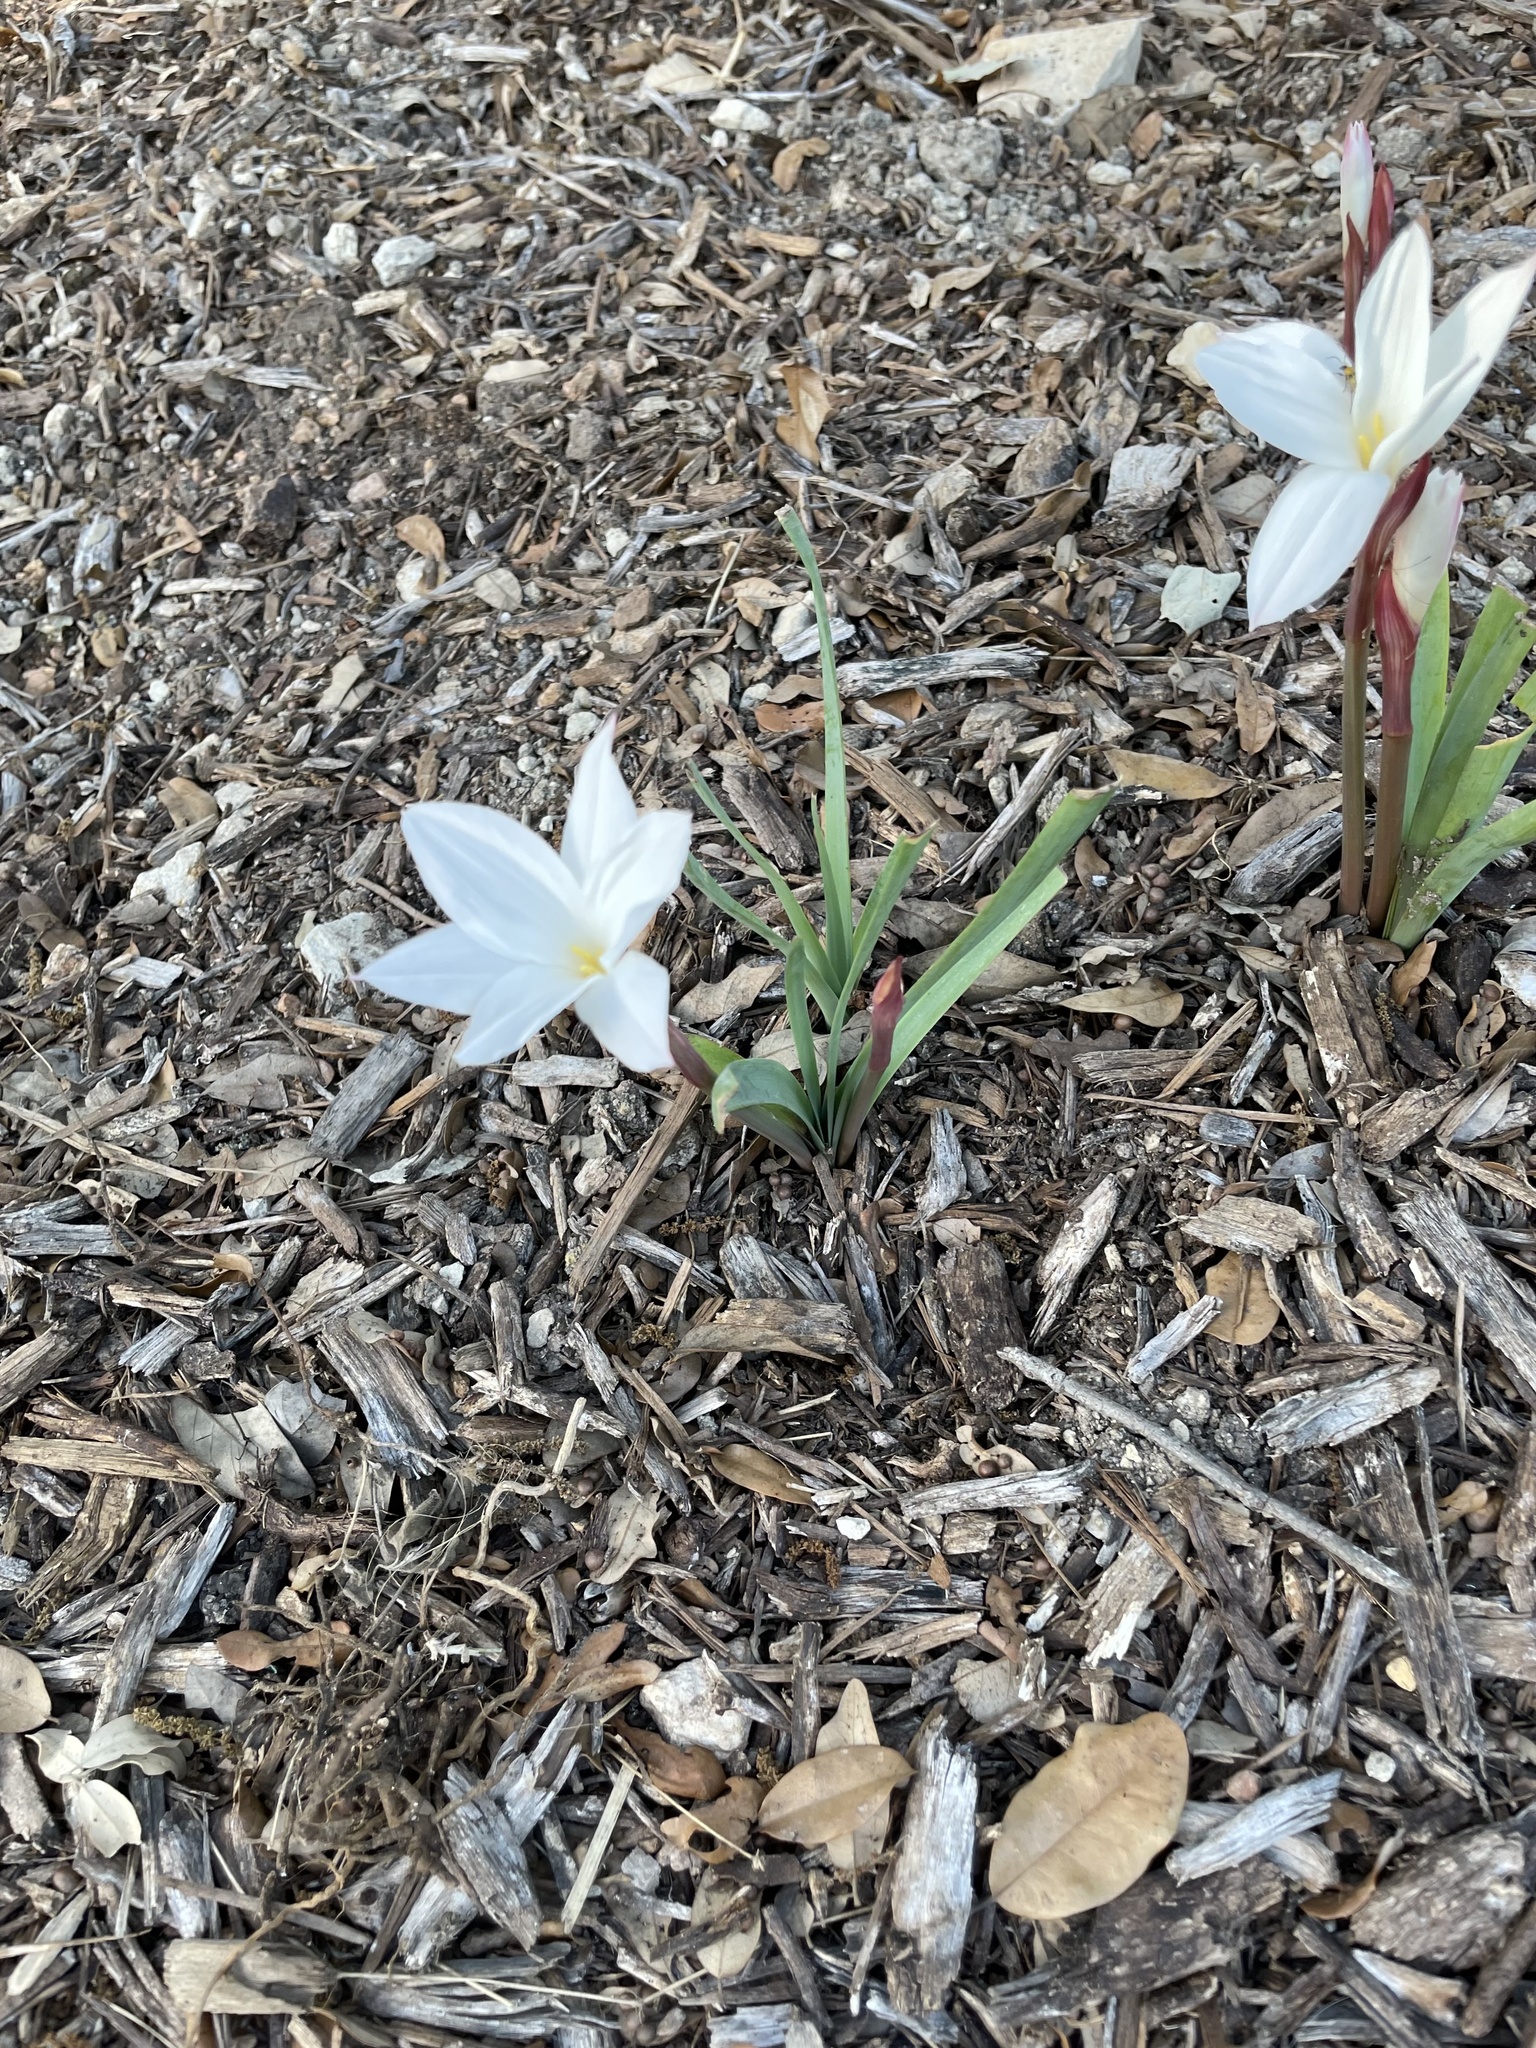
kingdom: Plantae
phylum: Tracheophyta
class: Liliopsida
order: Asparagales
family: Amaryllidaceae
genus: Zephyranthes
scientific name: Zephyranthes drummondii
